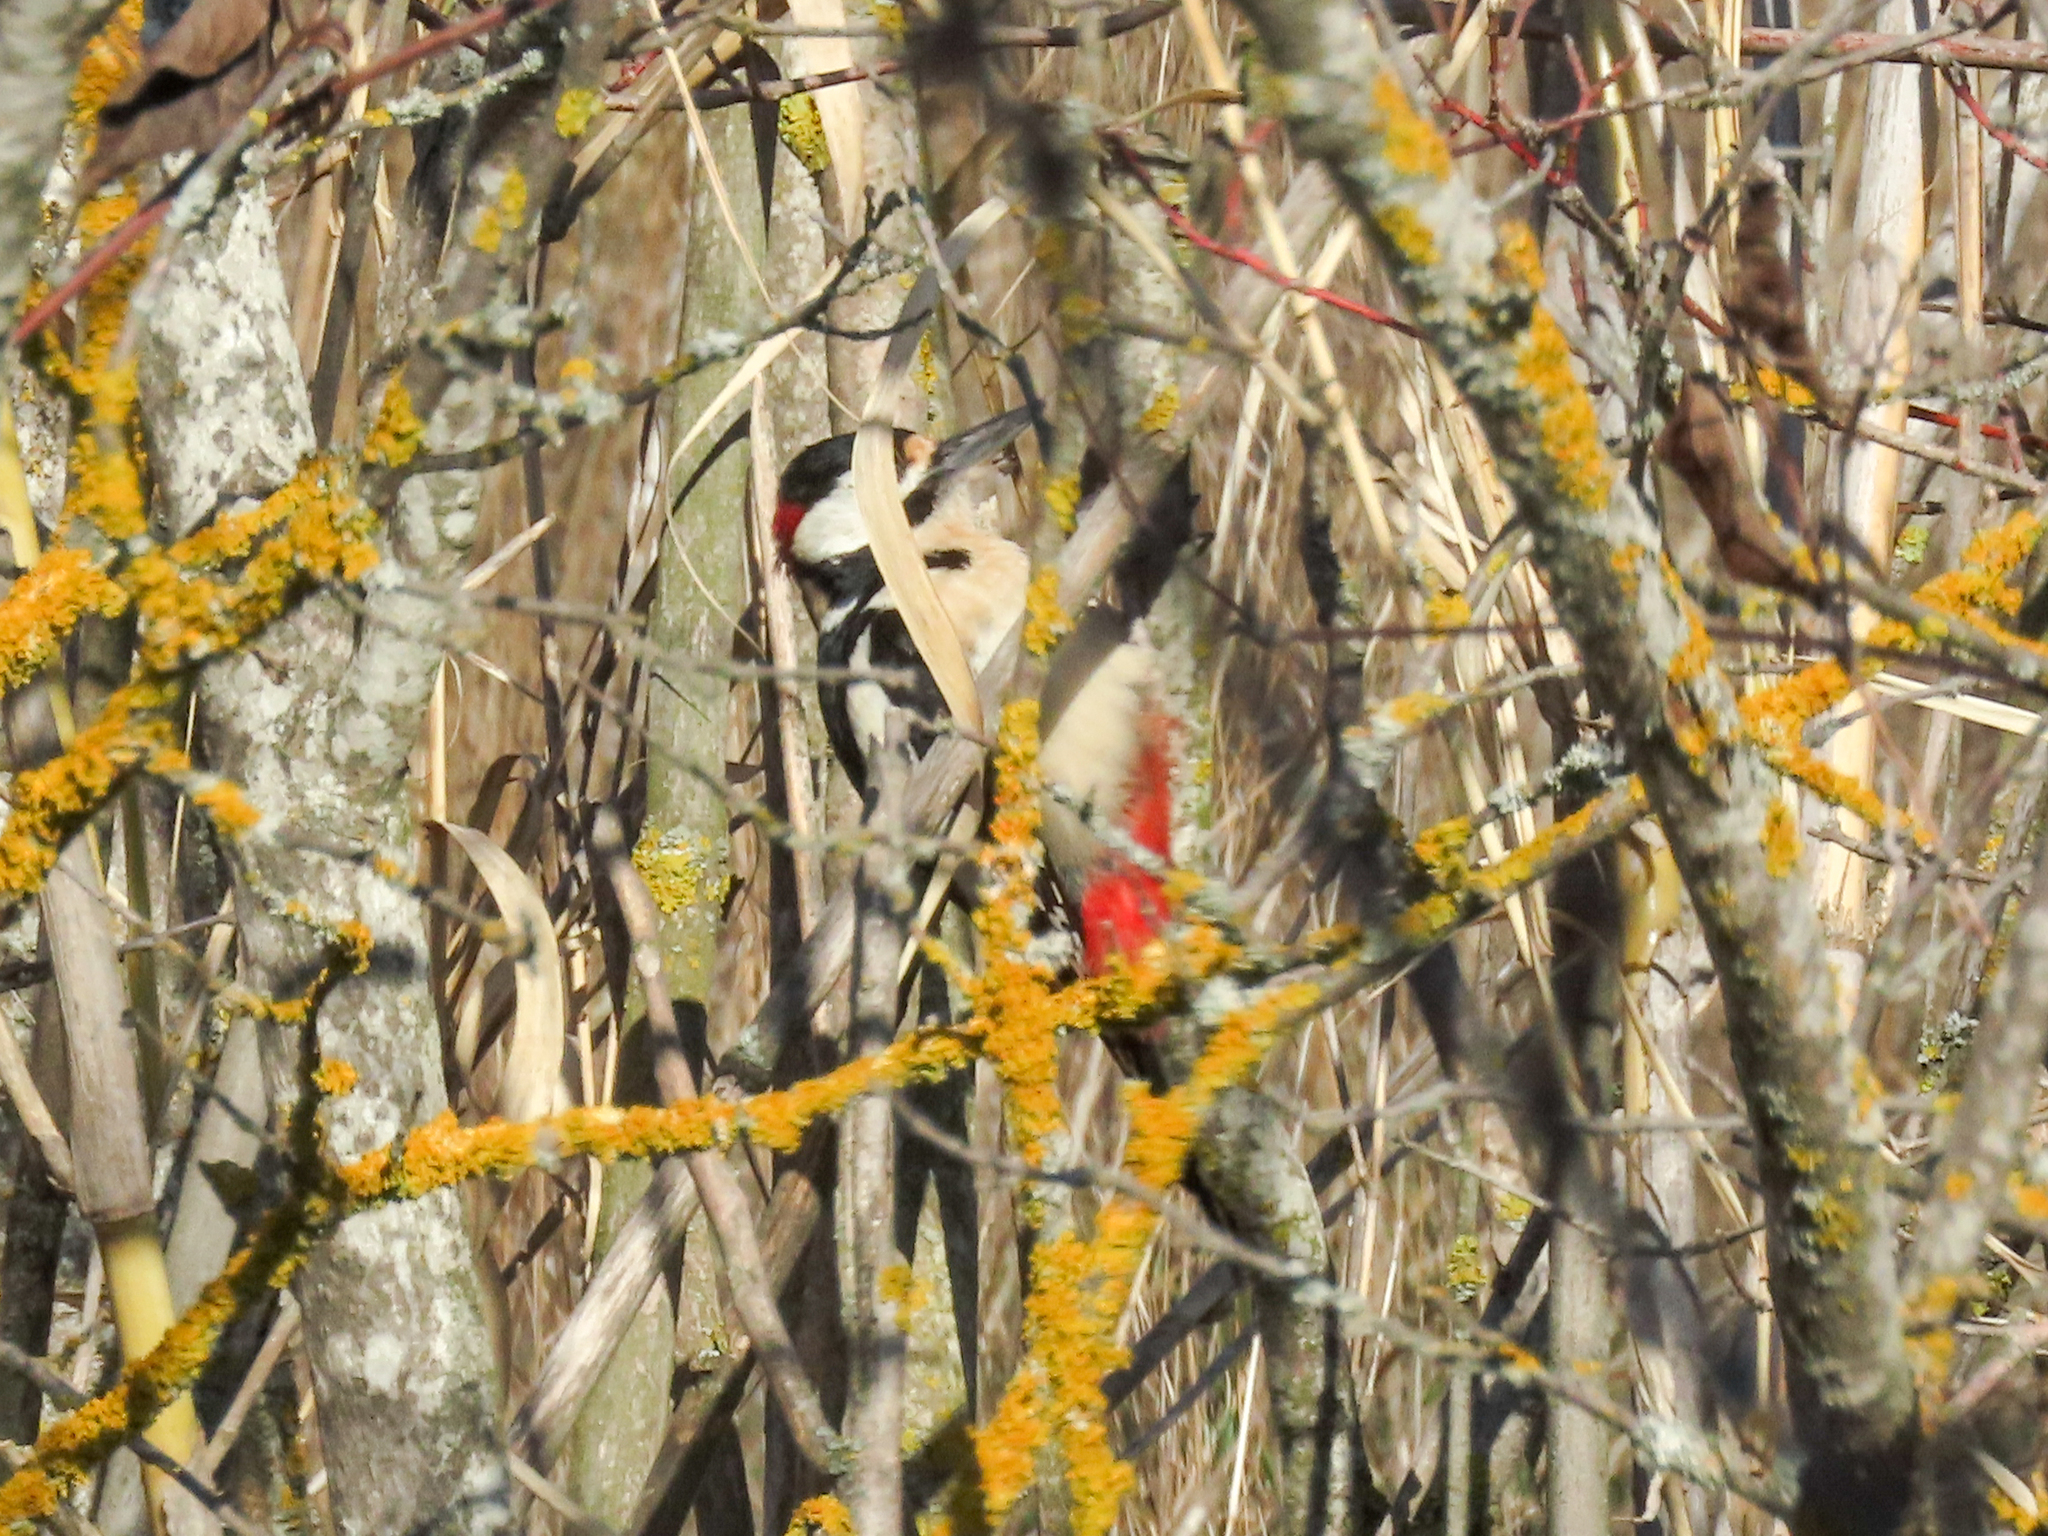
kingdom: Animalia
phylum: Chordata
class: Aves
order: Piciformes
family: Picidae
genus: Dendrocopos
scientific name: Dendrocopos major
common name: Great spotted woodpecker
